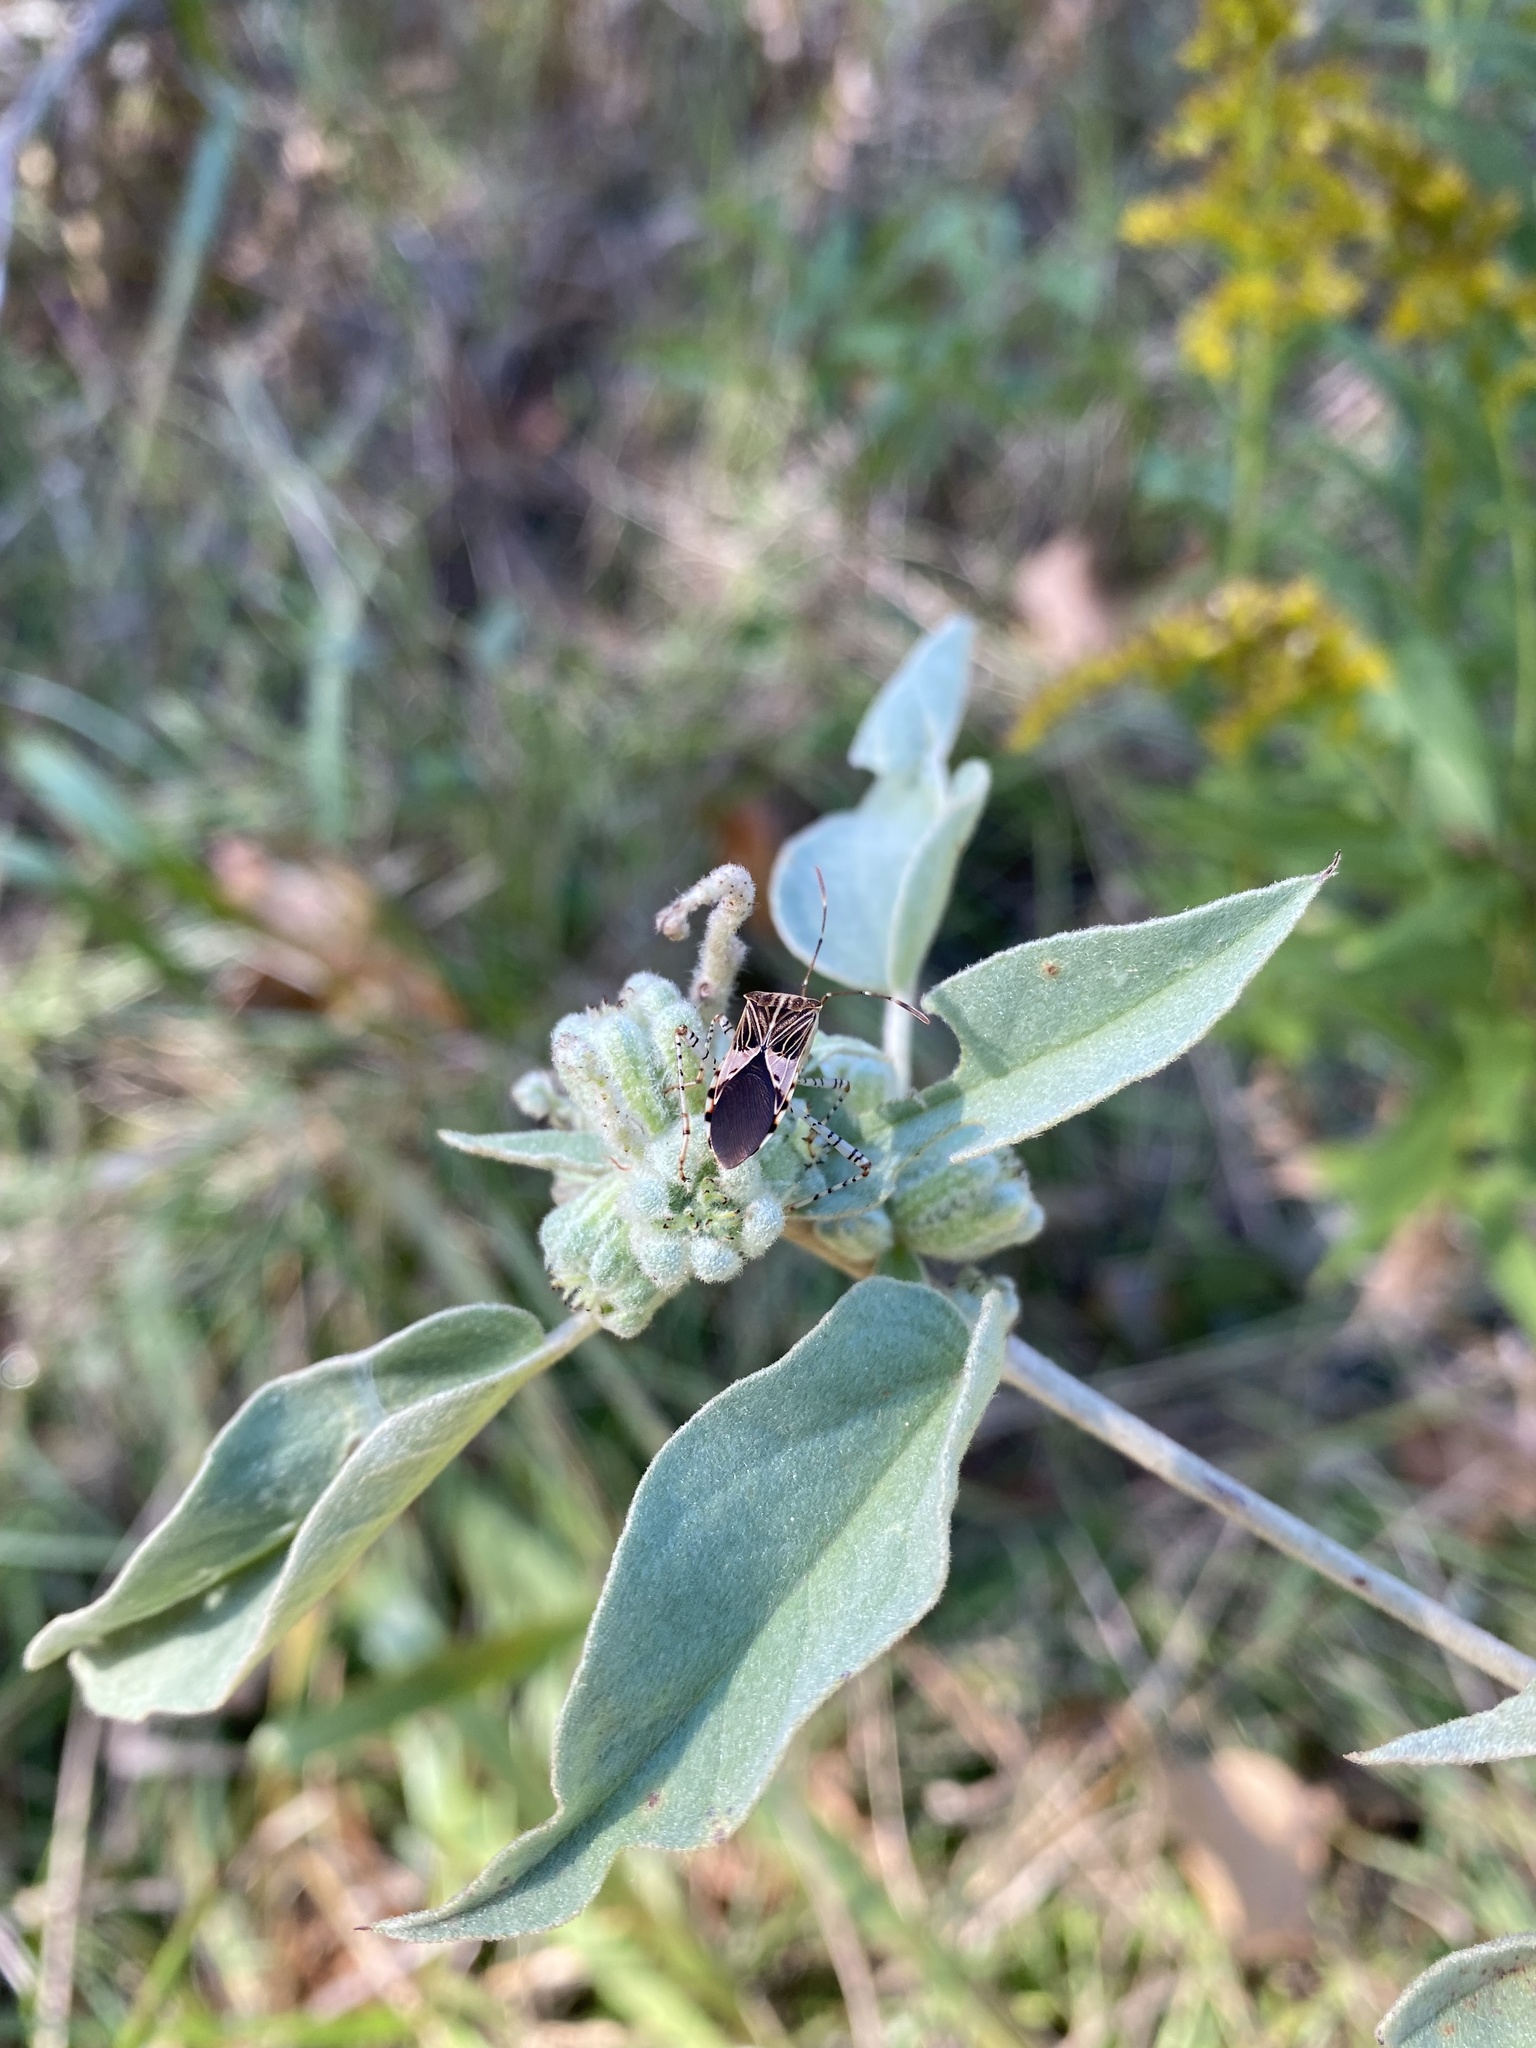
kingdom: Animalia
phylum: Arthropoda
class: Insecta
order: Hemiptera
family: Coreidae
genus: Hypselonotus
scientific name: Hypselonotus punctiventris
